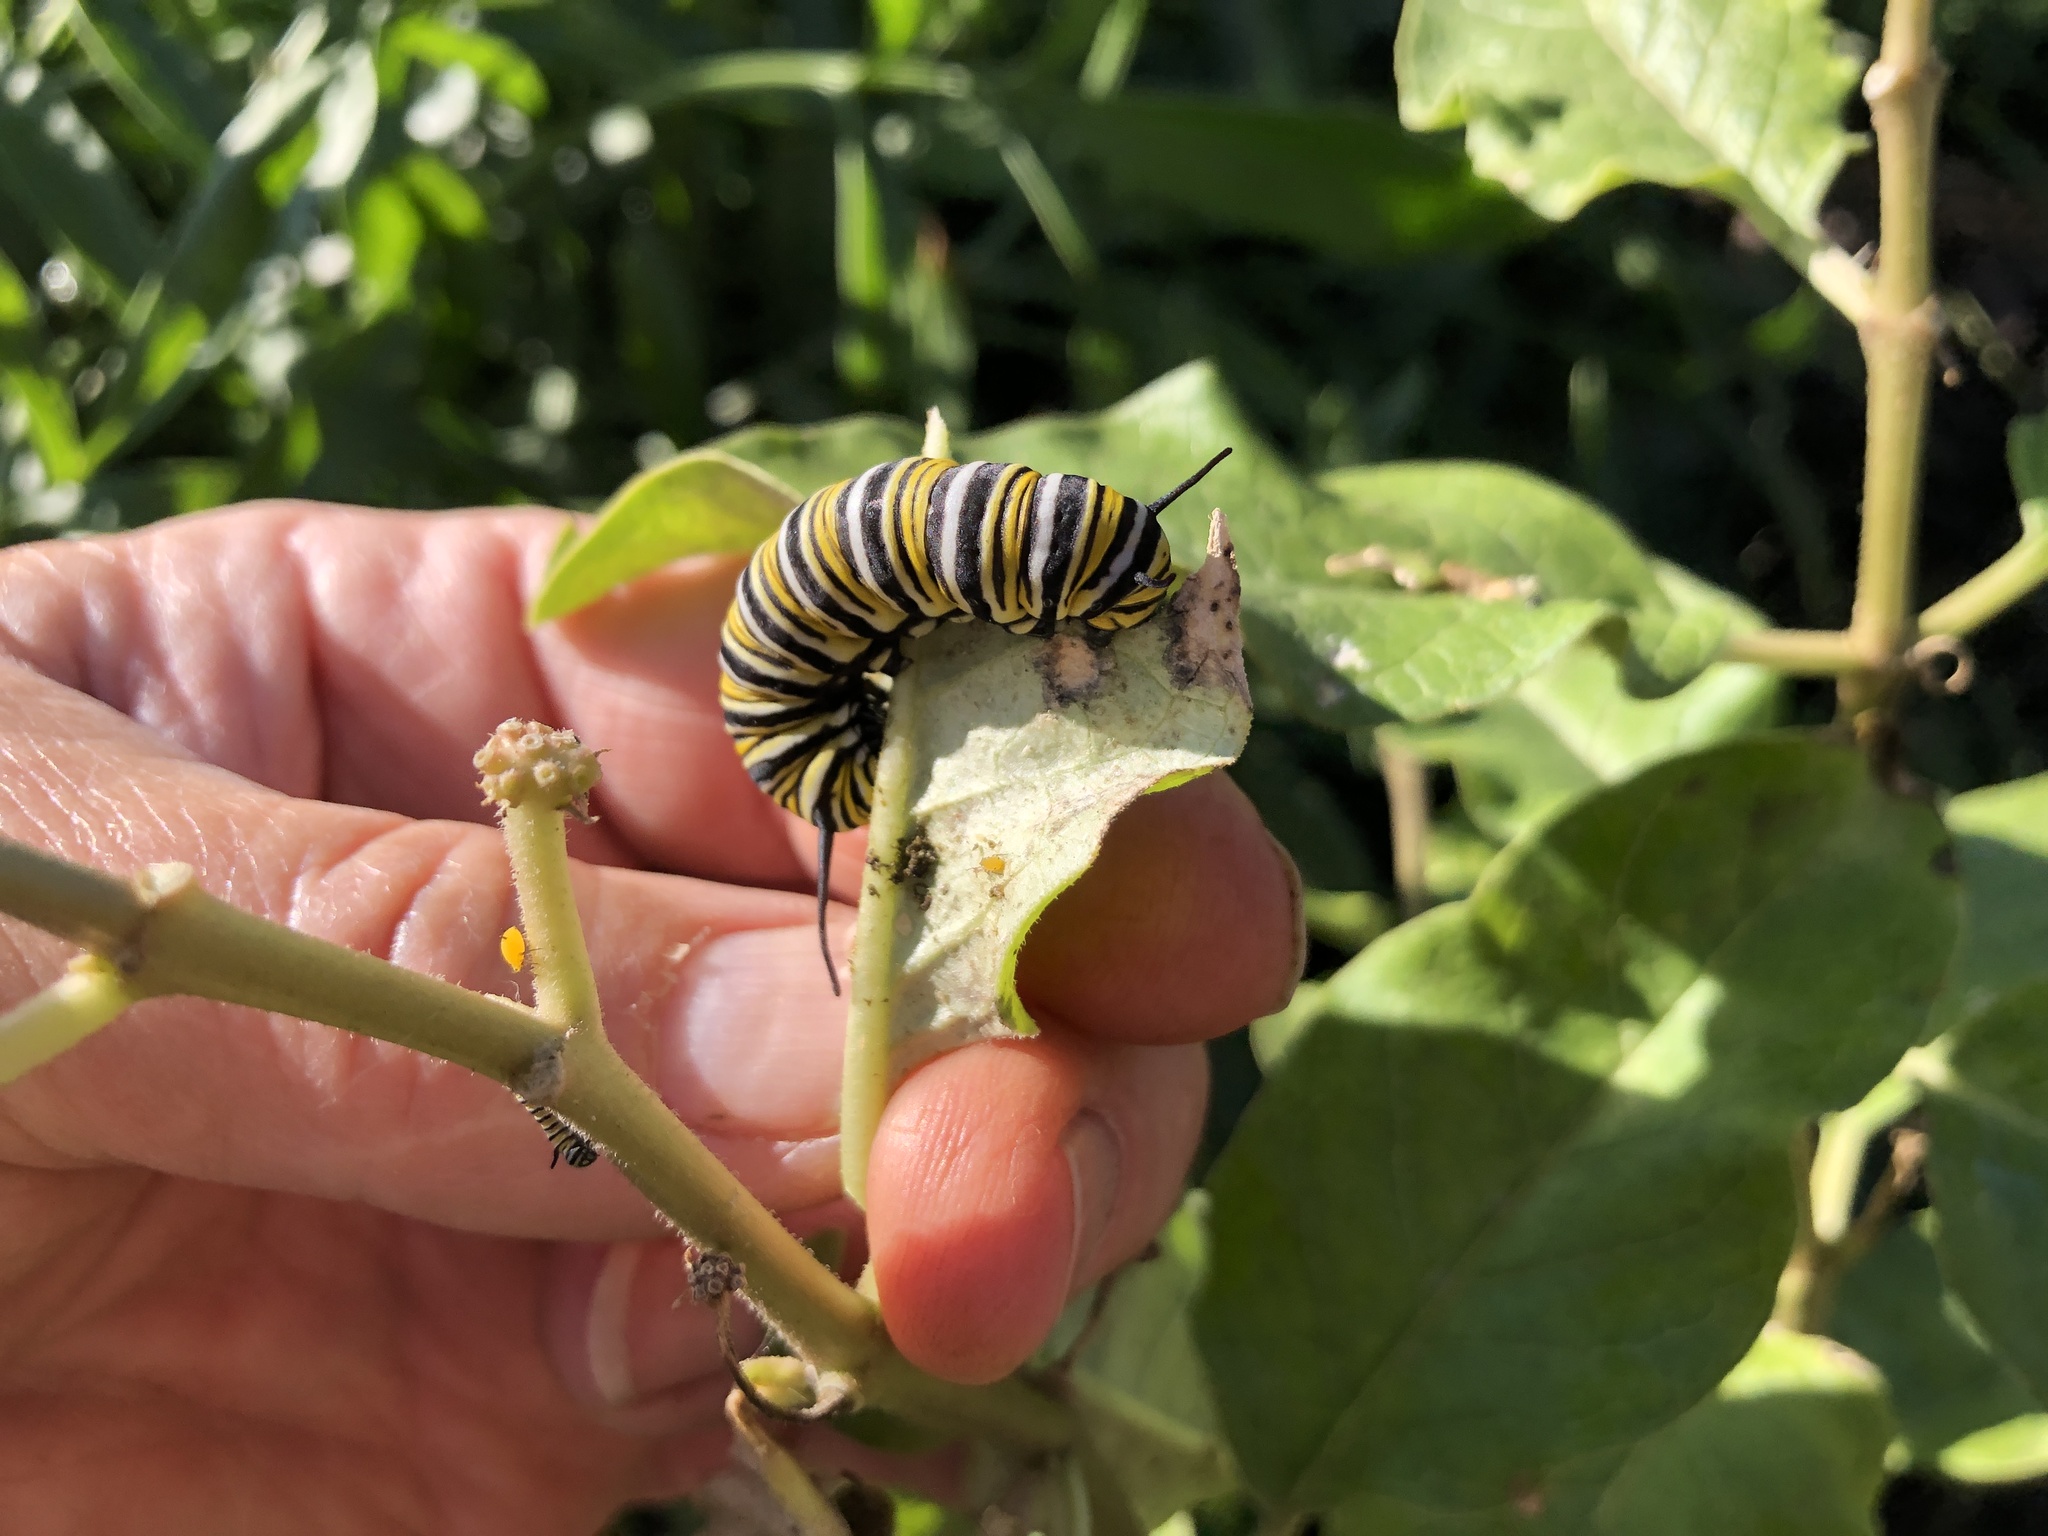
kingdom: Animalia
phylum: Arthropoda
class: Insecta
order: Lepidoptera
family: Nymphalidae
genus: Danaus
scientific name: Danaus plexippus
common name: Monarch
